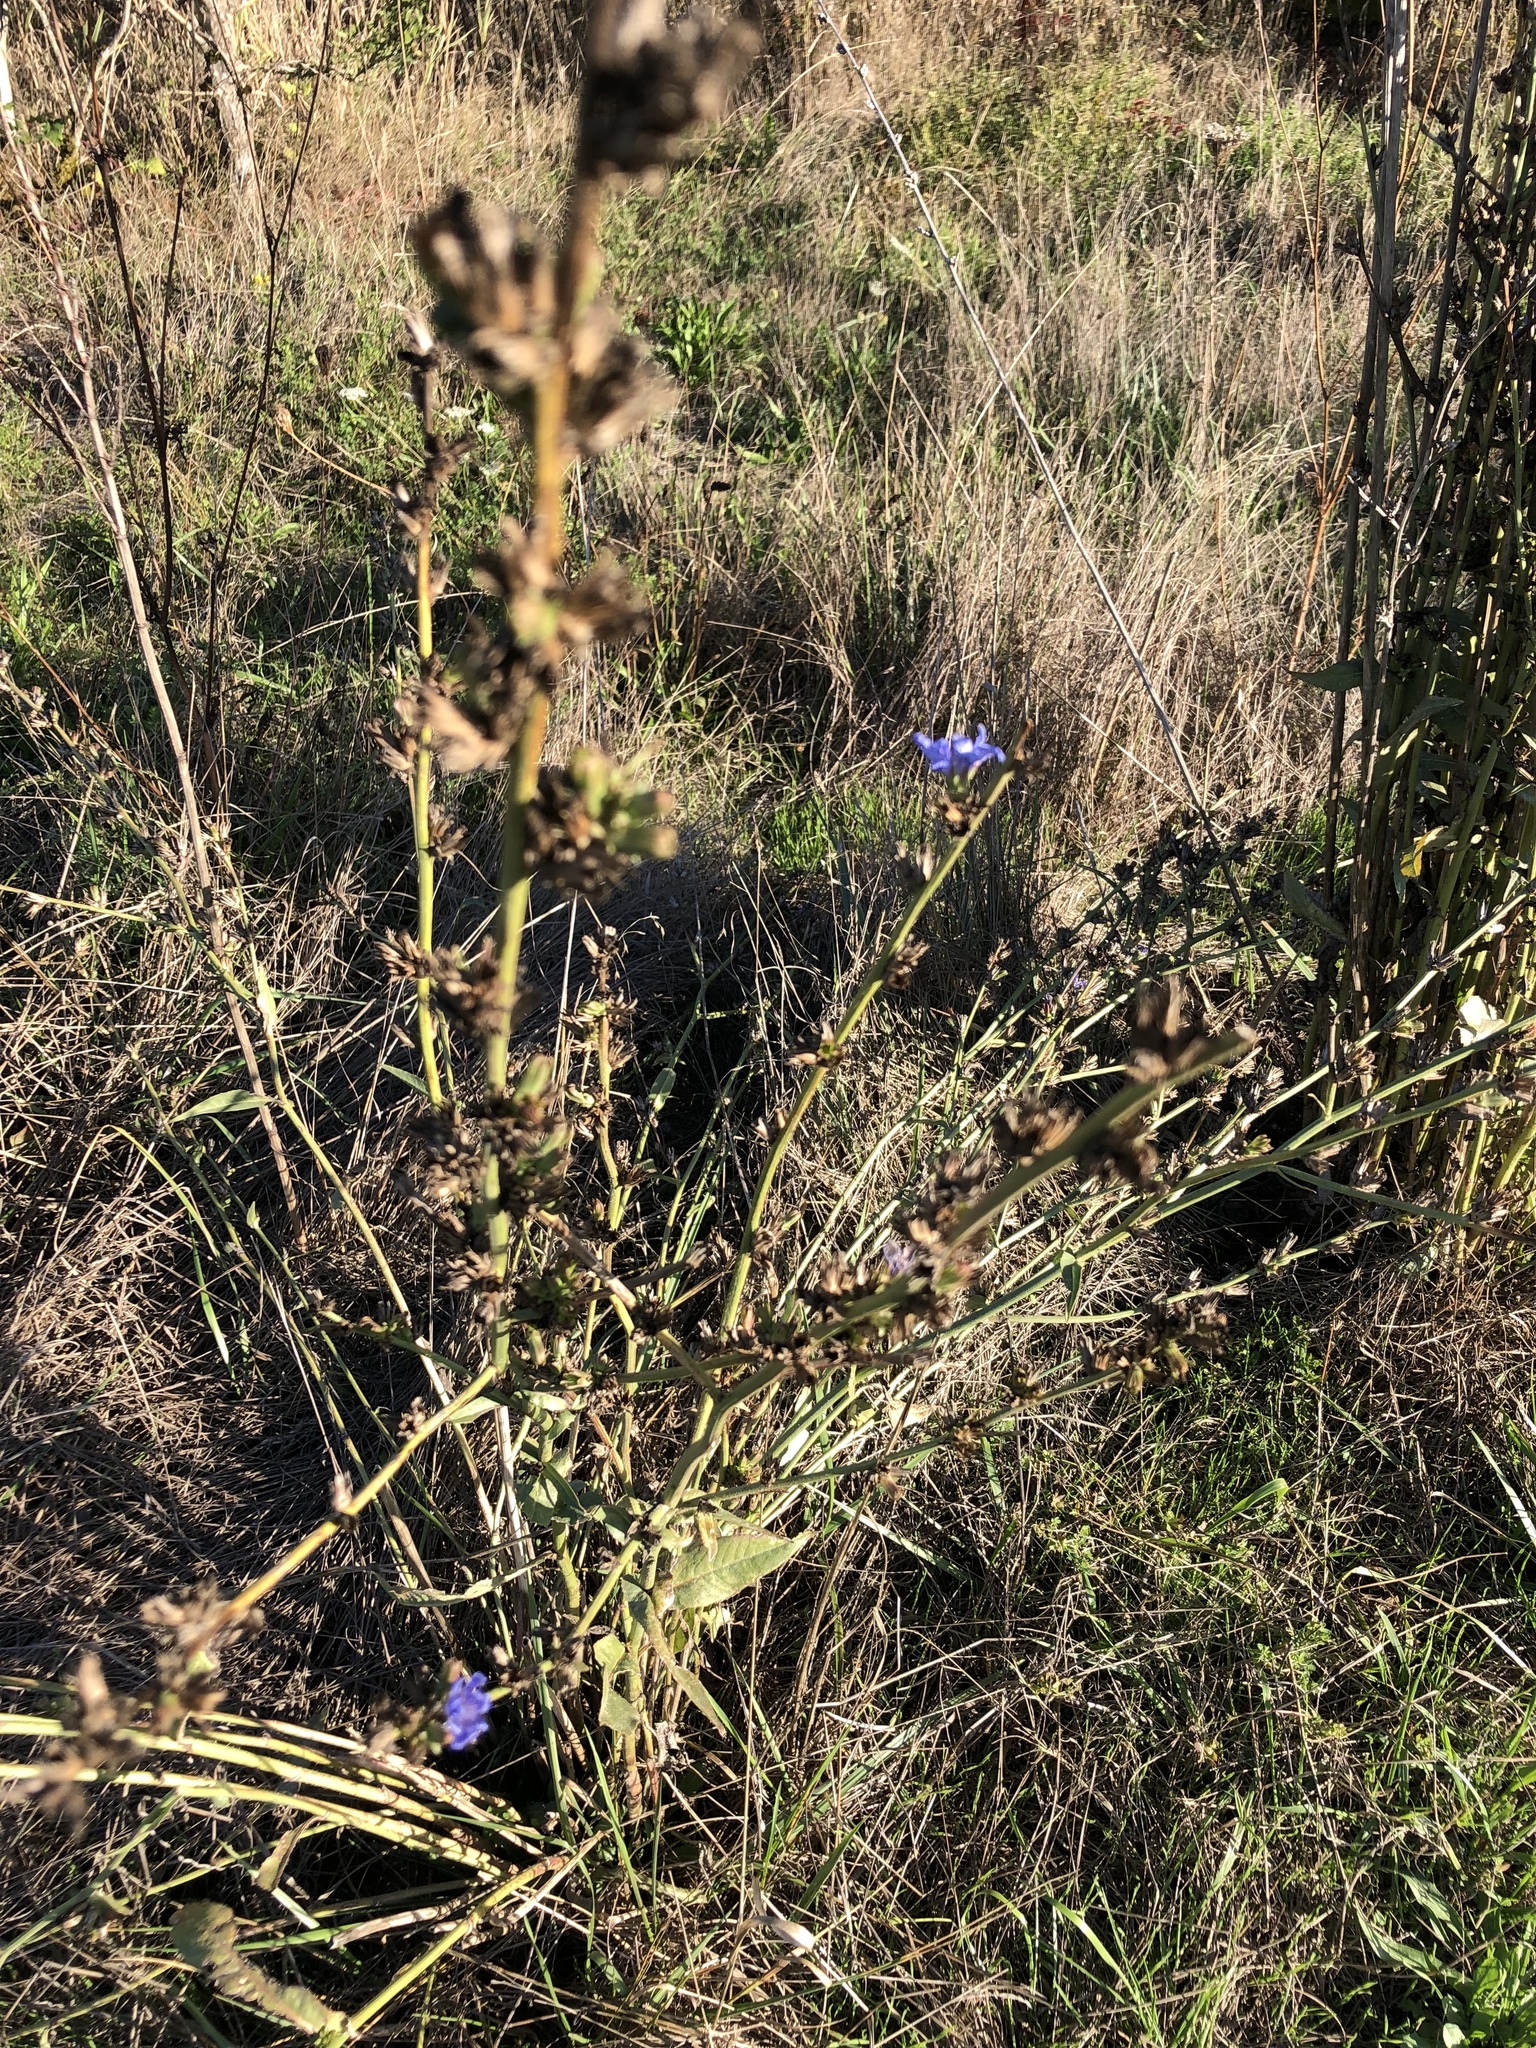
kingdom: Plantae
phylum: Tracheophyta
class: Magnoliopsida
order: Asterales
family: Asteraceae
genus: Cichorium
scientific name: Cichorium intybus
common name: Chicory
